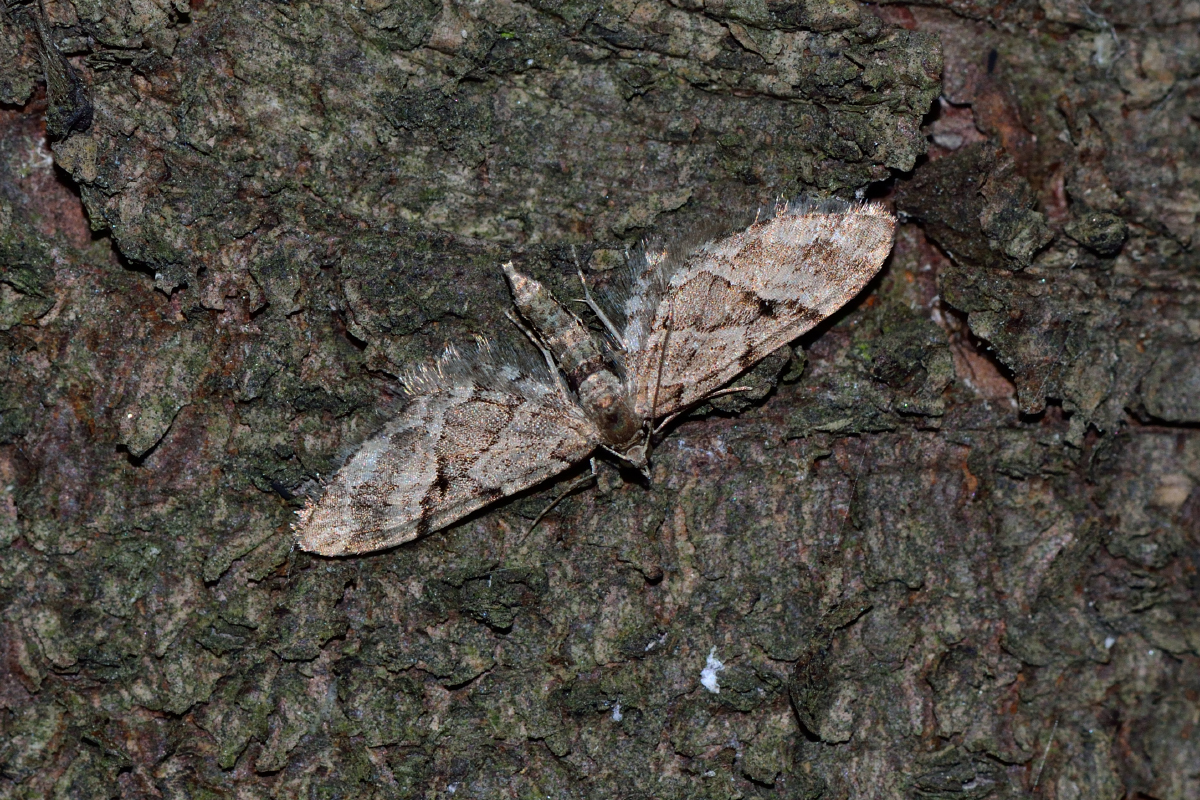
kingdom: Animalia
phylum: Arthropoda
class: Insecta
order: Lepidoptera
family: Geometridae
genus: Eupithecia
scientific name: Eupithecia lanceata
